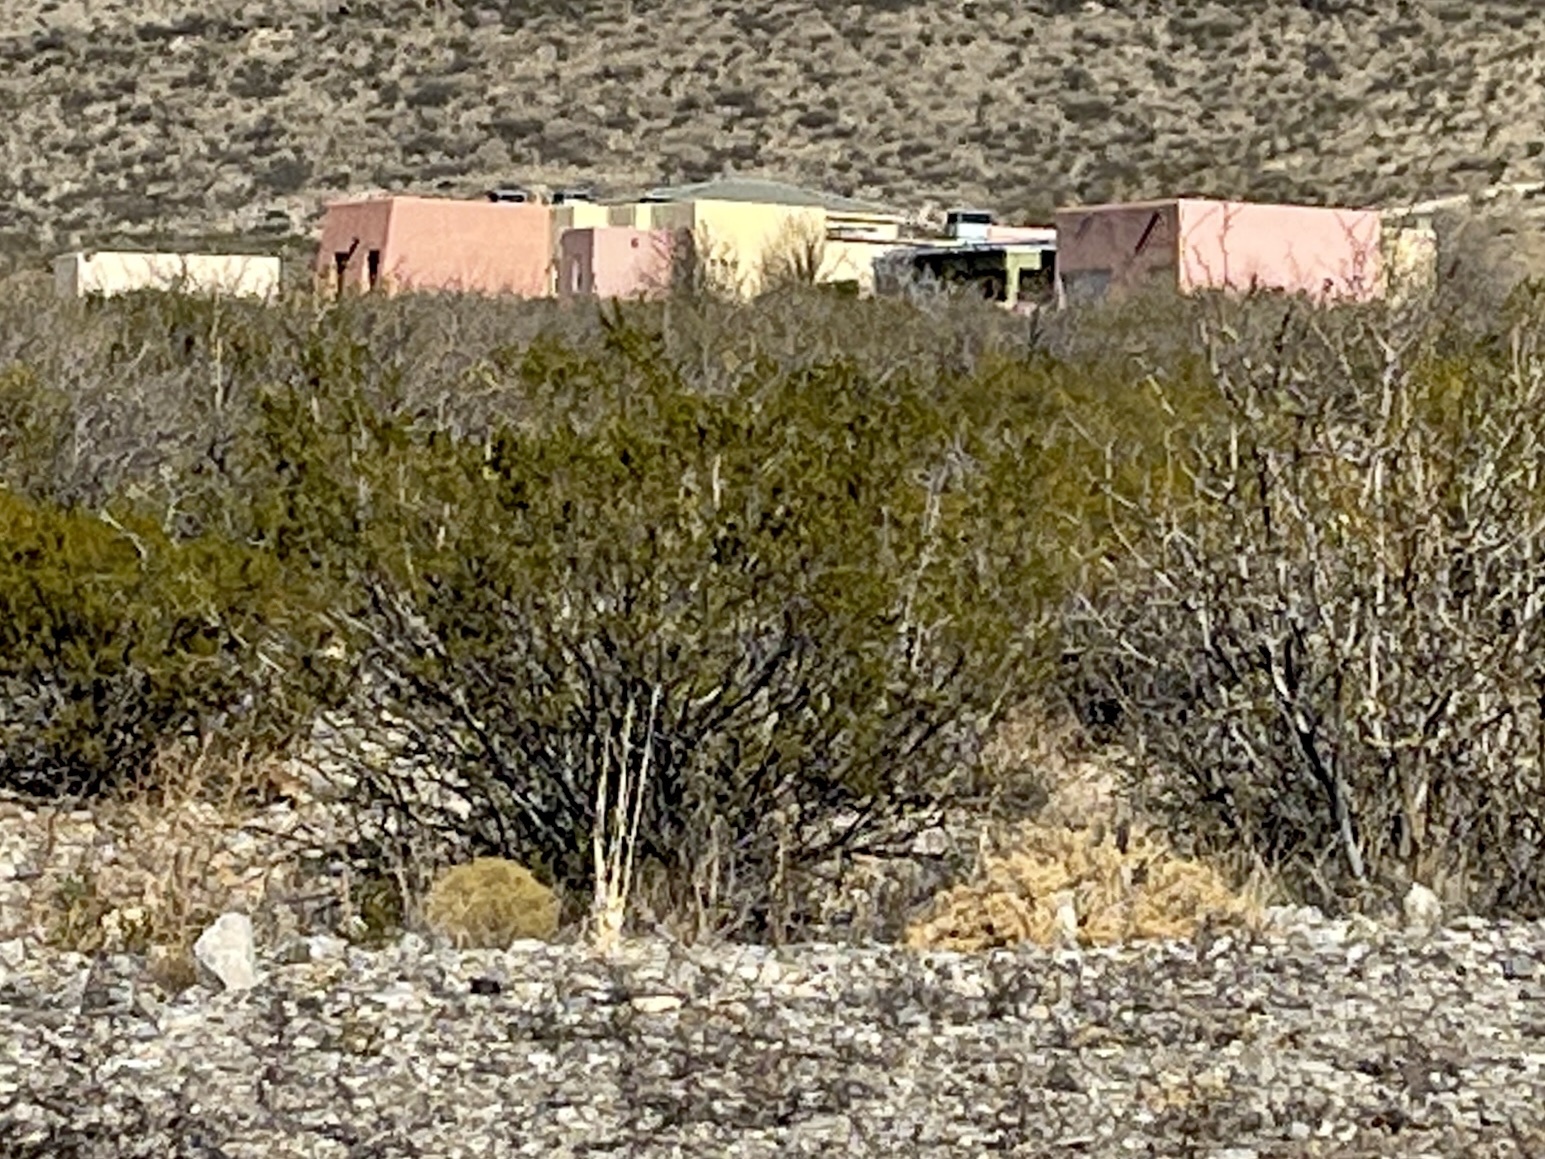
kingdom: Plantae
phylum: Tracheophyta
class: Magnoliopsida
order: Zygophyllales
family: Zygophyllaceae
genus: Larrea
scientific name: Larrea tridentata
